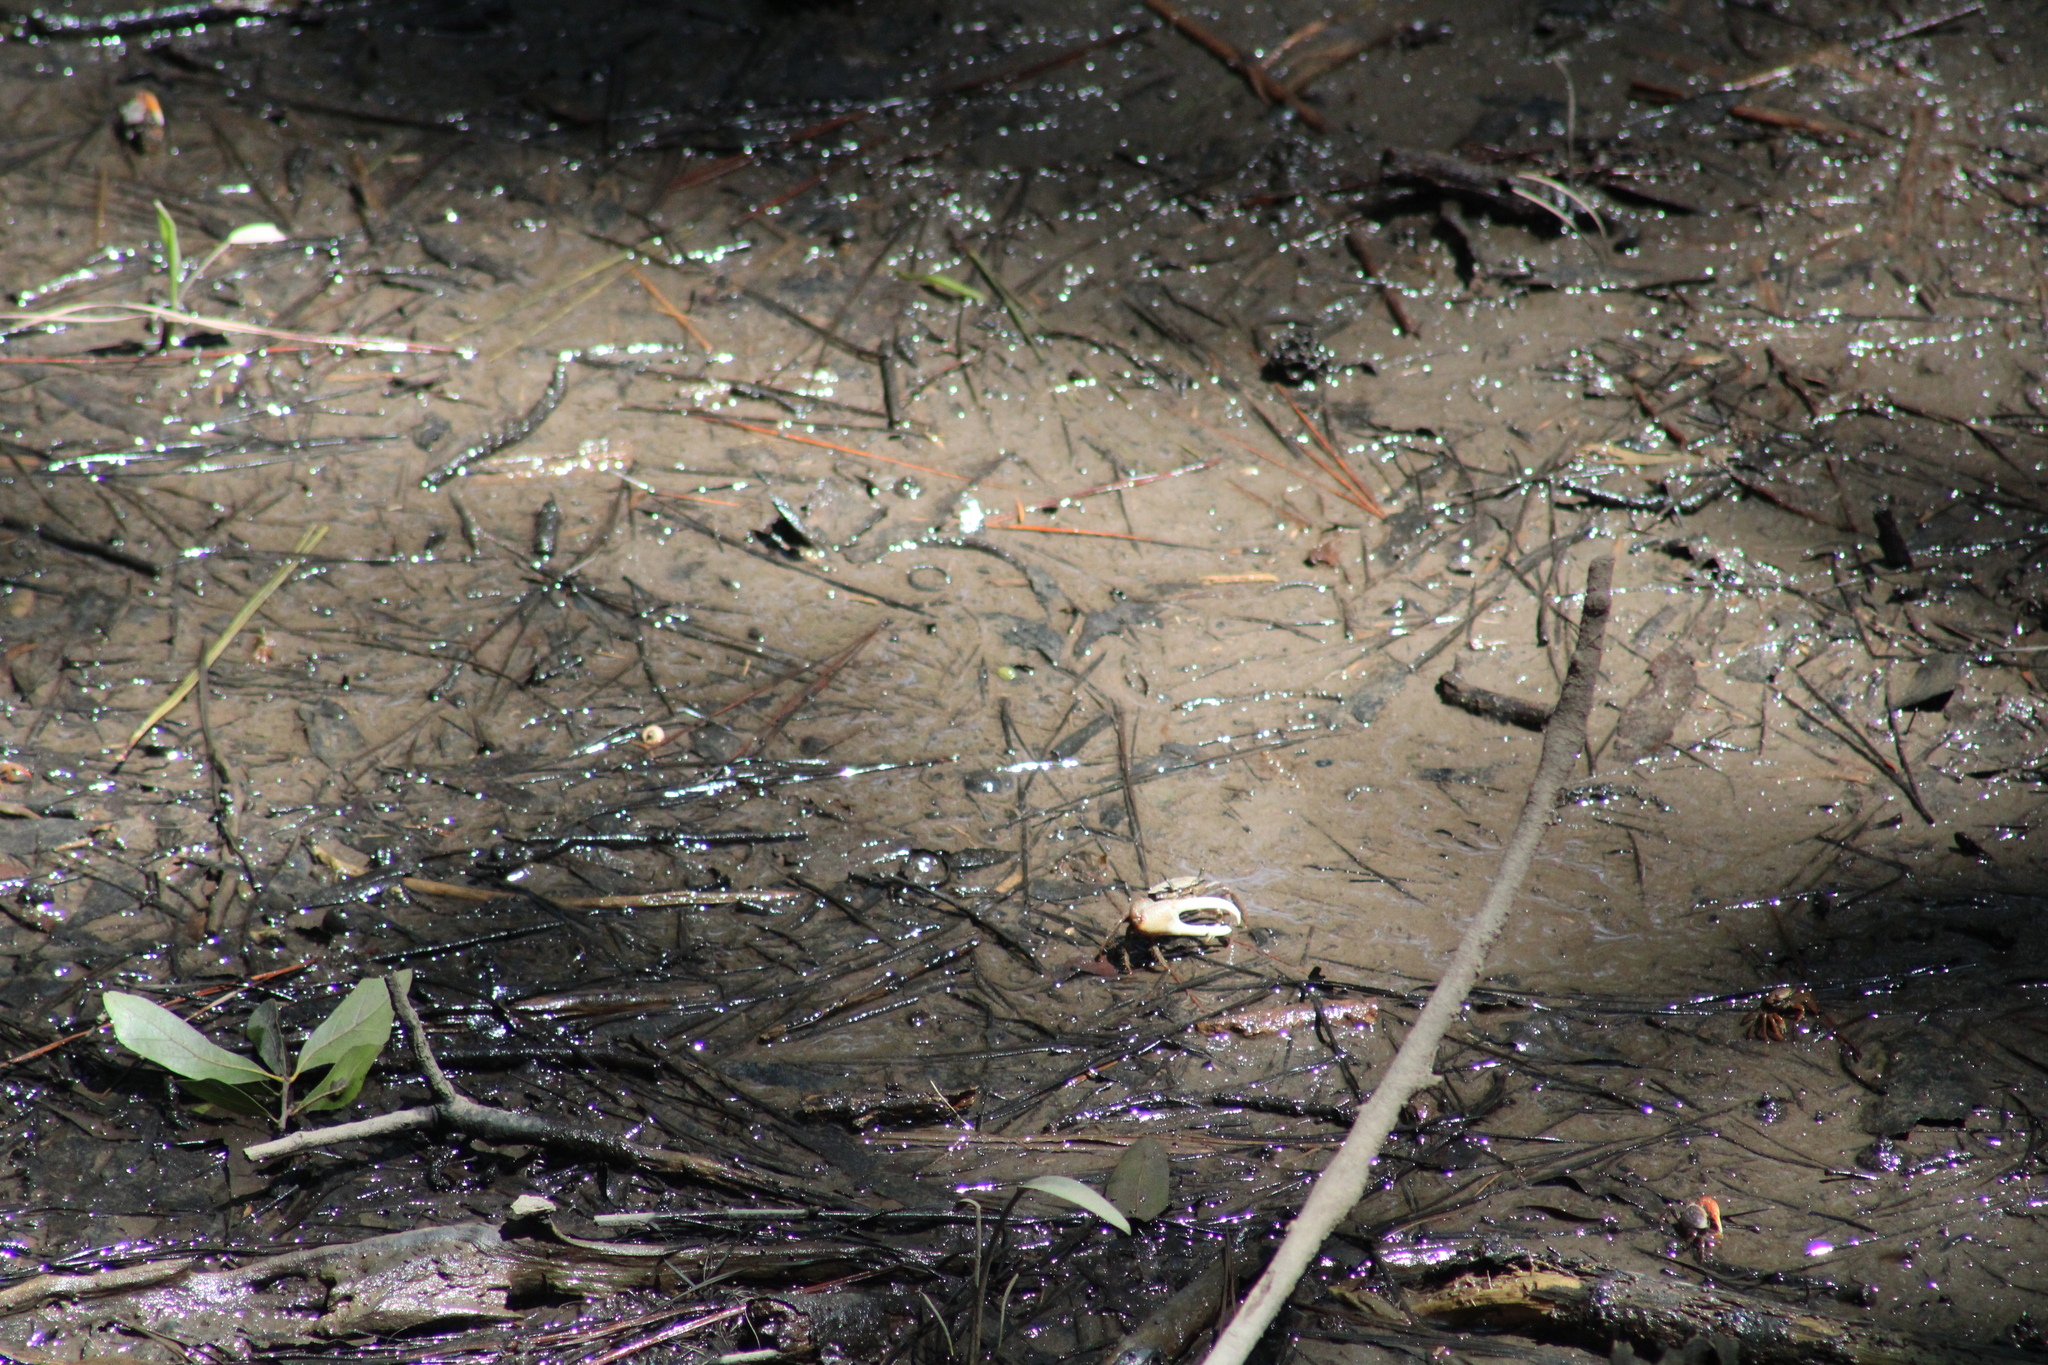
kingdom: Animalia
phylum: Arthropoda
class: Malacostraca
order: Decapoda
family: Ocypodidae
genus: Minuca
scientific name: Minuca minax
